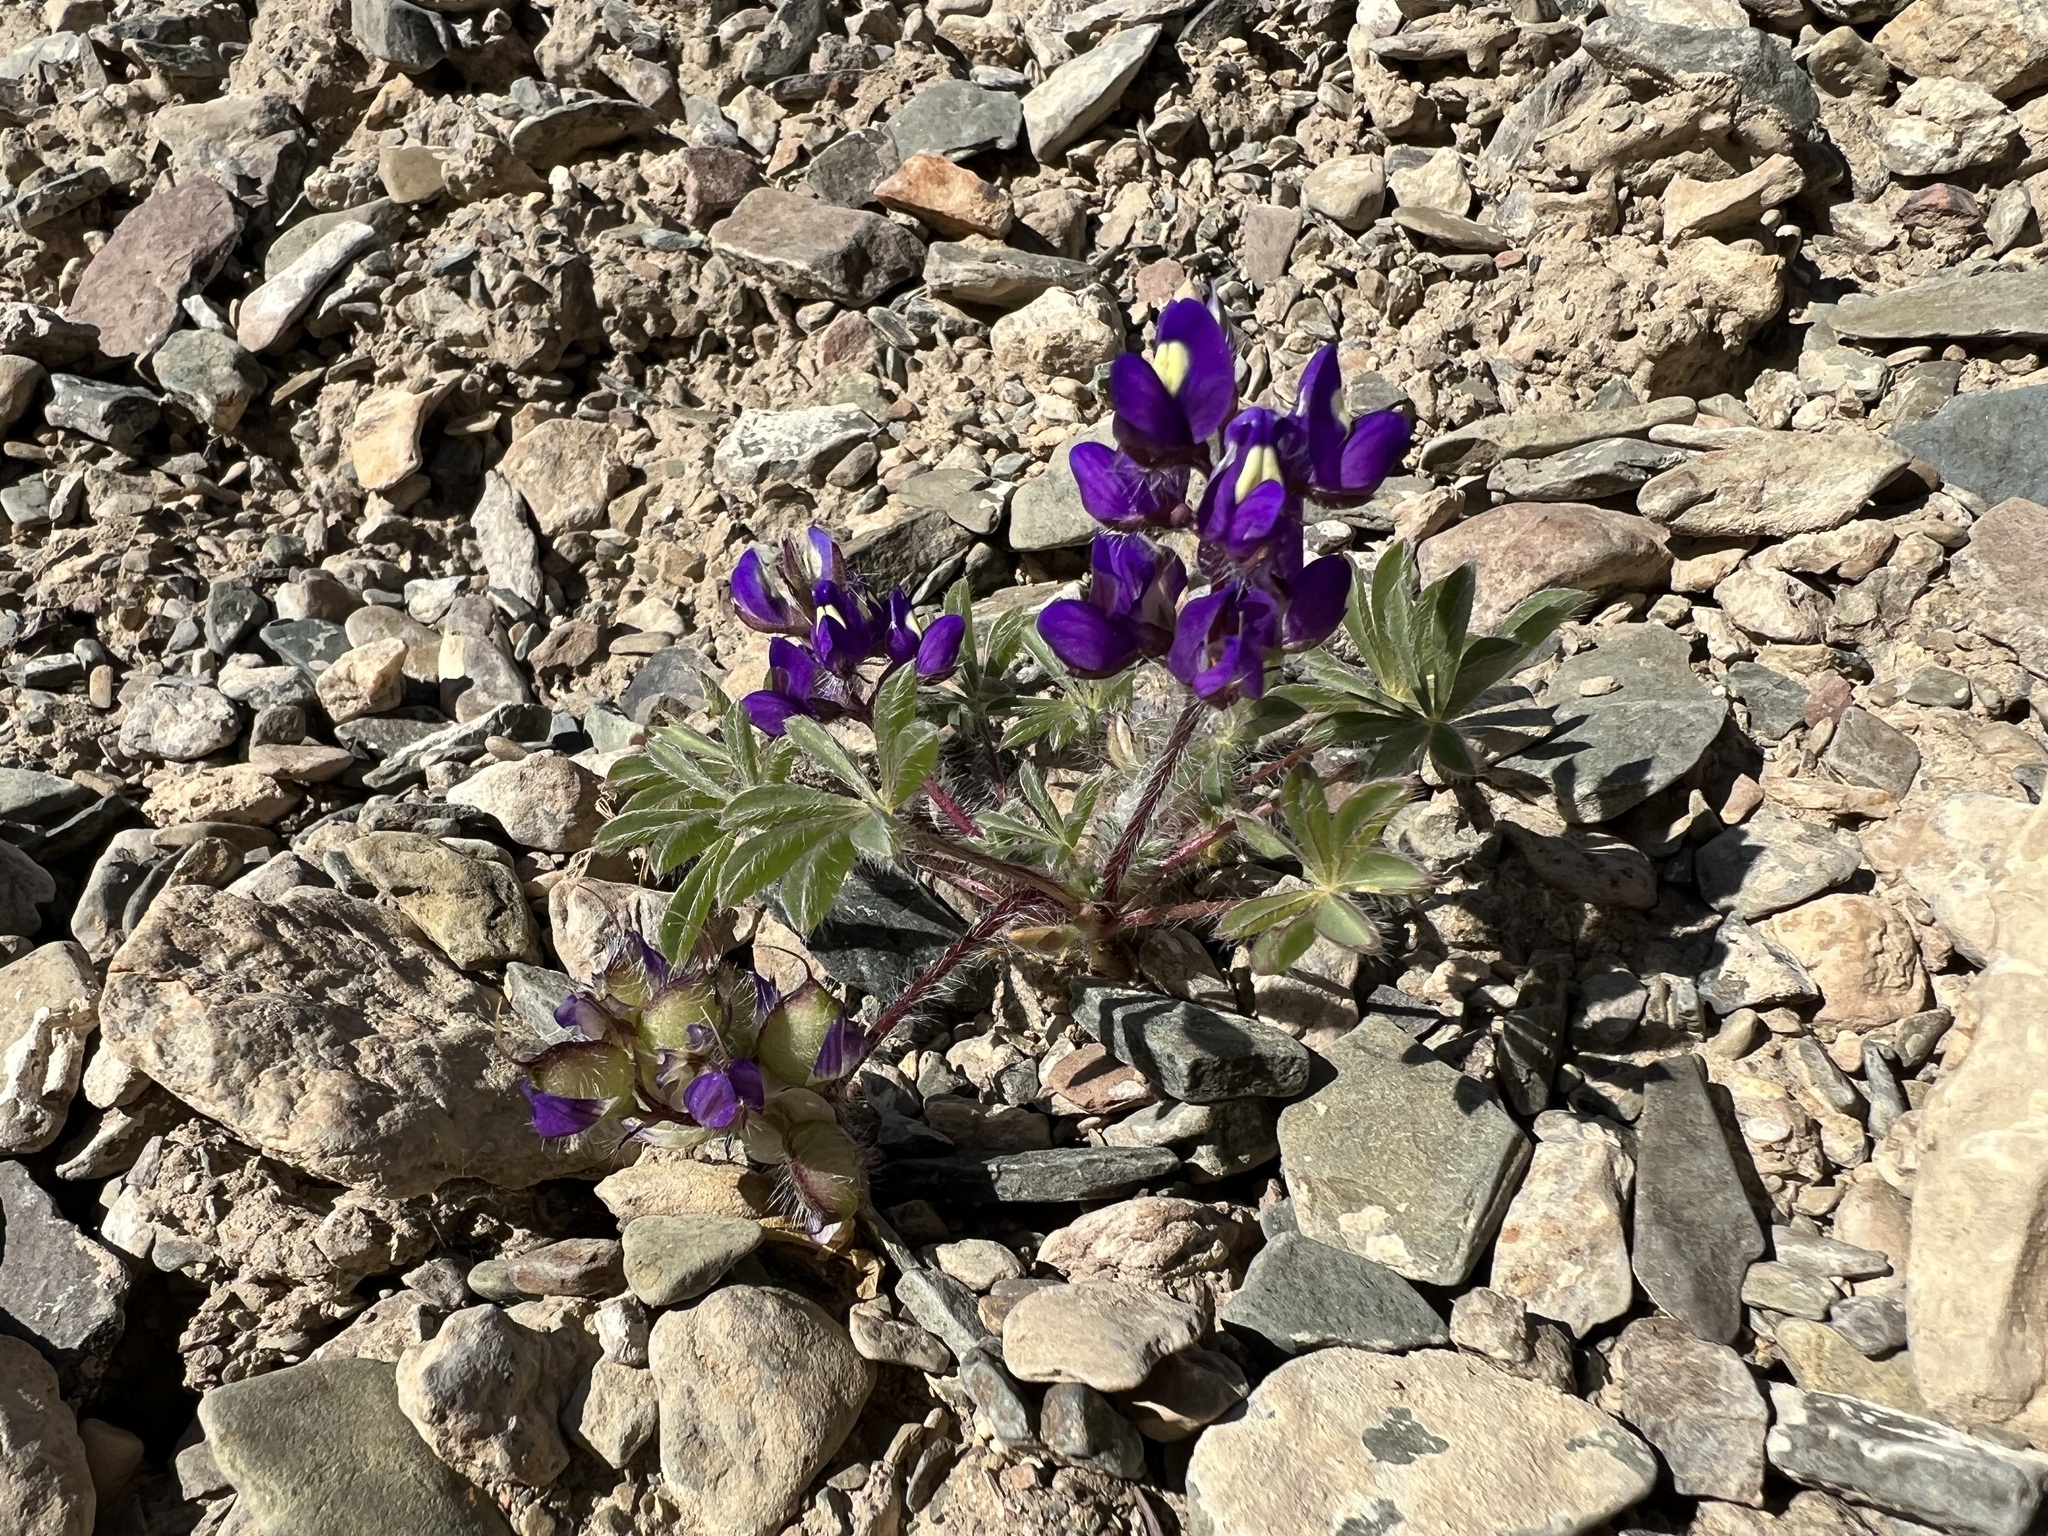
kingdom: Plantae
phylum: Tracheophyta
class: Magnoliopsida
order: Fabales
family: Fabaceae
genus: Lupinus
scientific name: Lupinus flavoculatus
